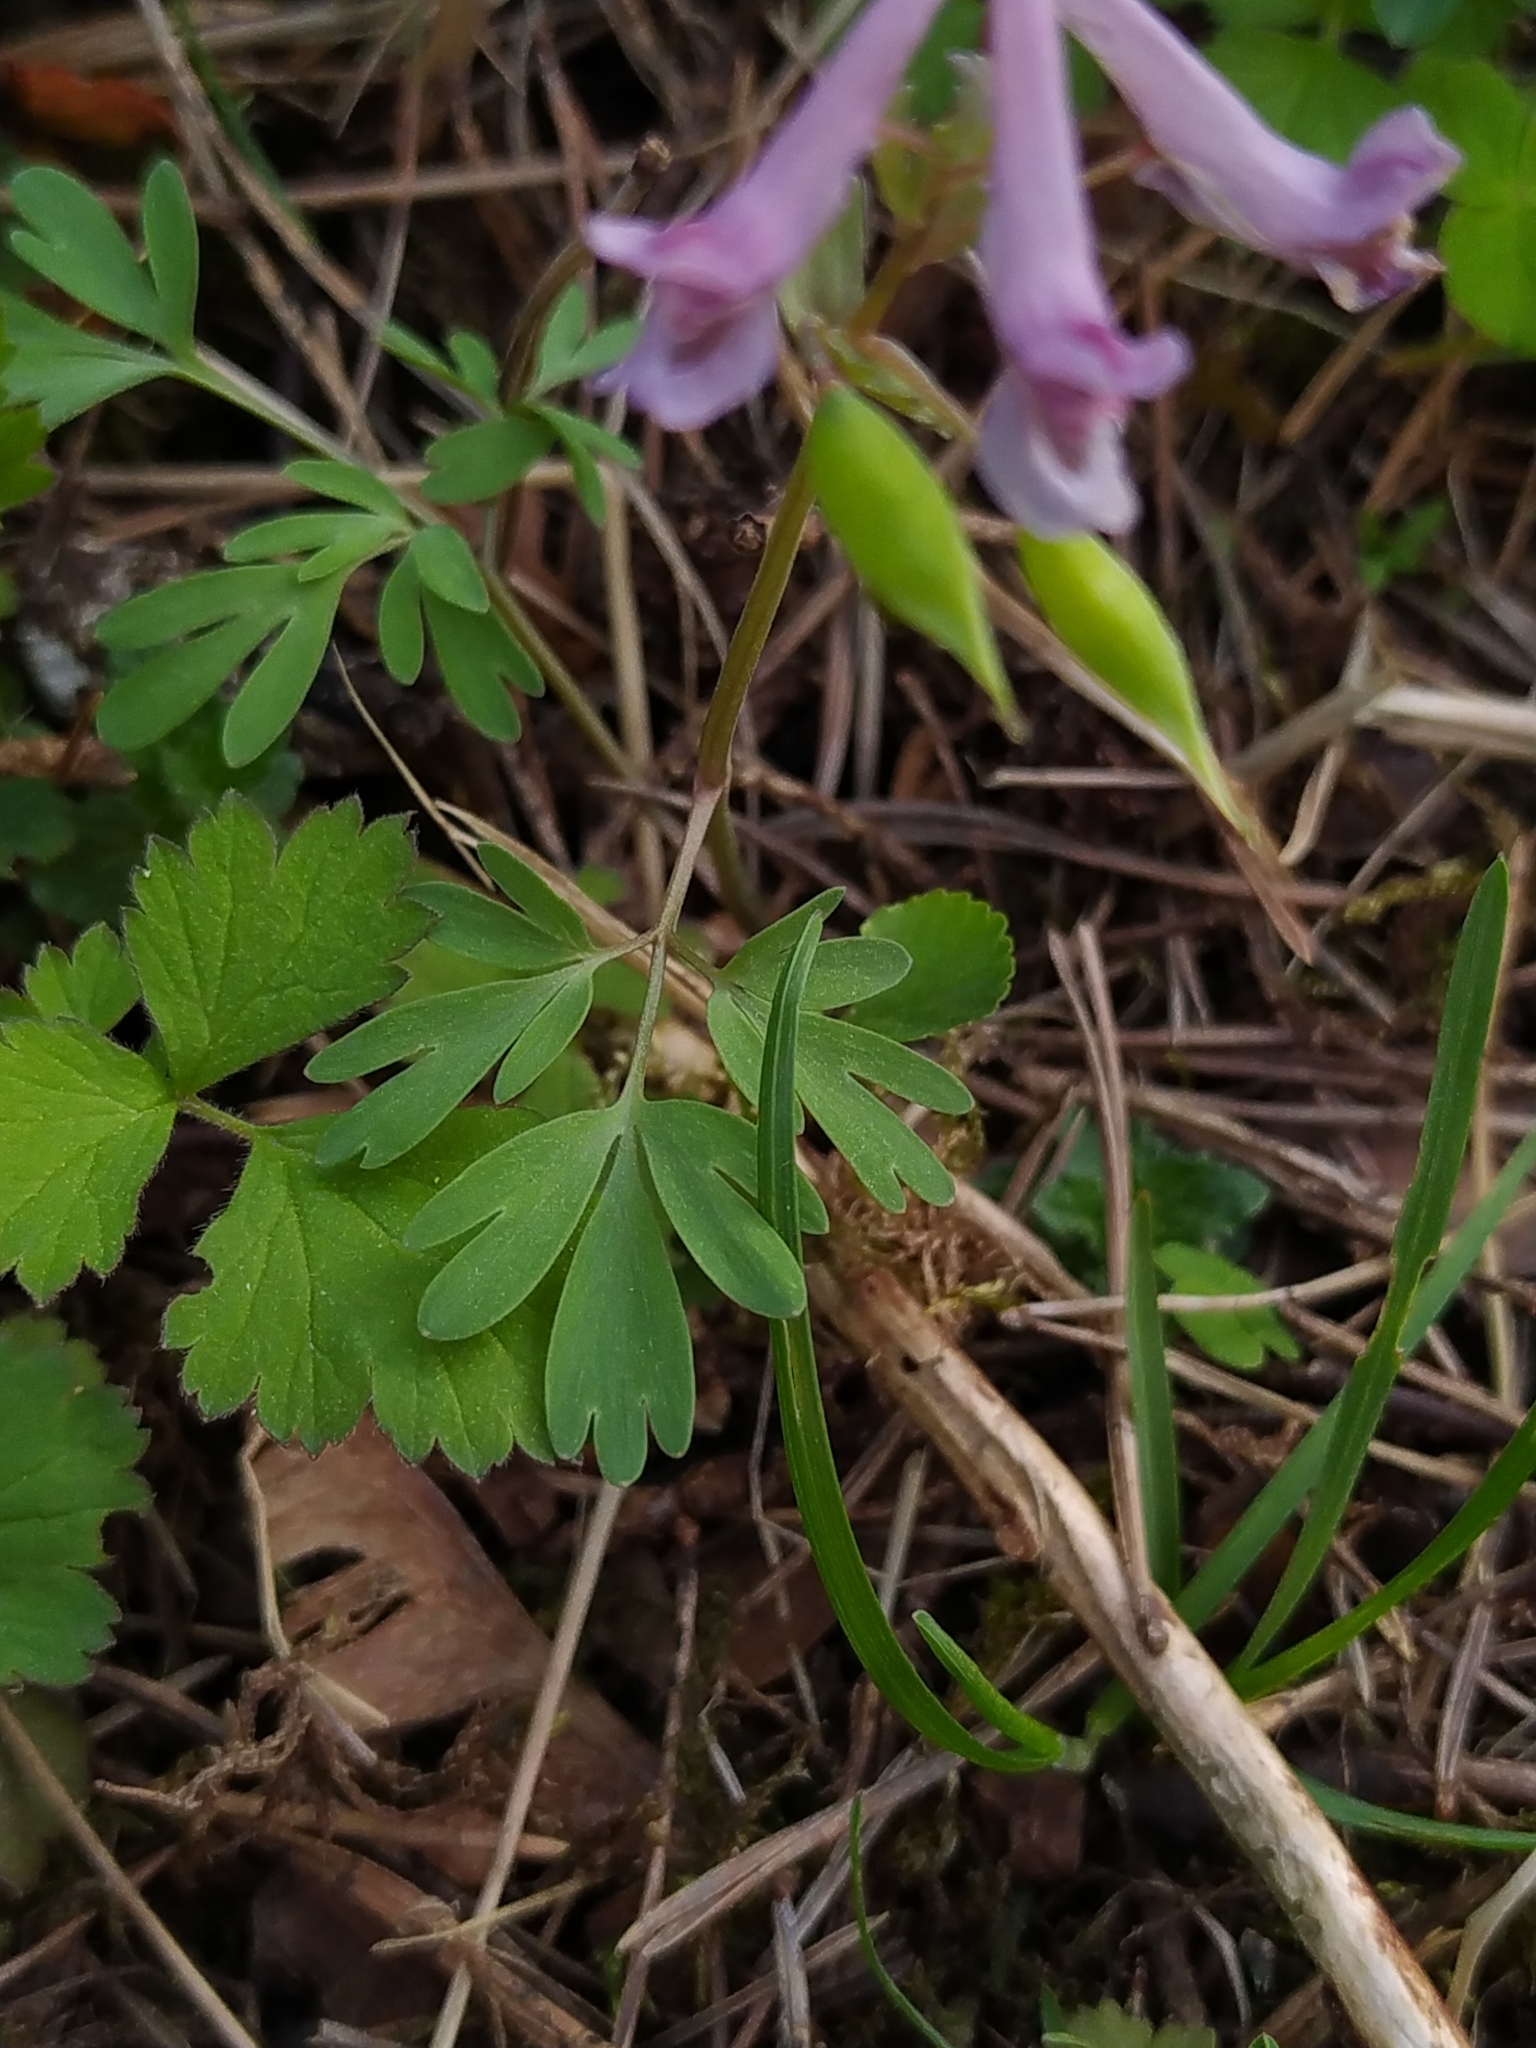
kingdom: Plantae
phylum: Tracheophyta
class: Magnoliopsida
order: Ranunculales
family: Papaveraceae
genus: Corydalis
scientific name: Corydalis solida
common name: Bird-in-a-bush
